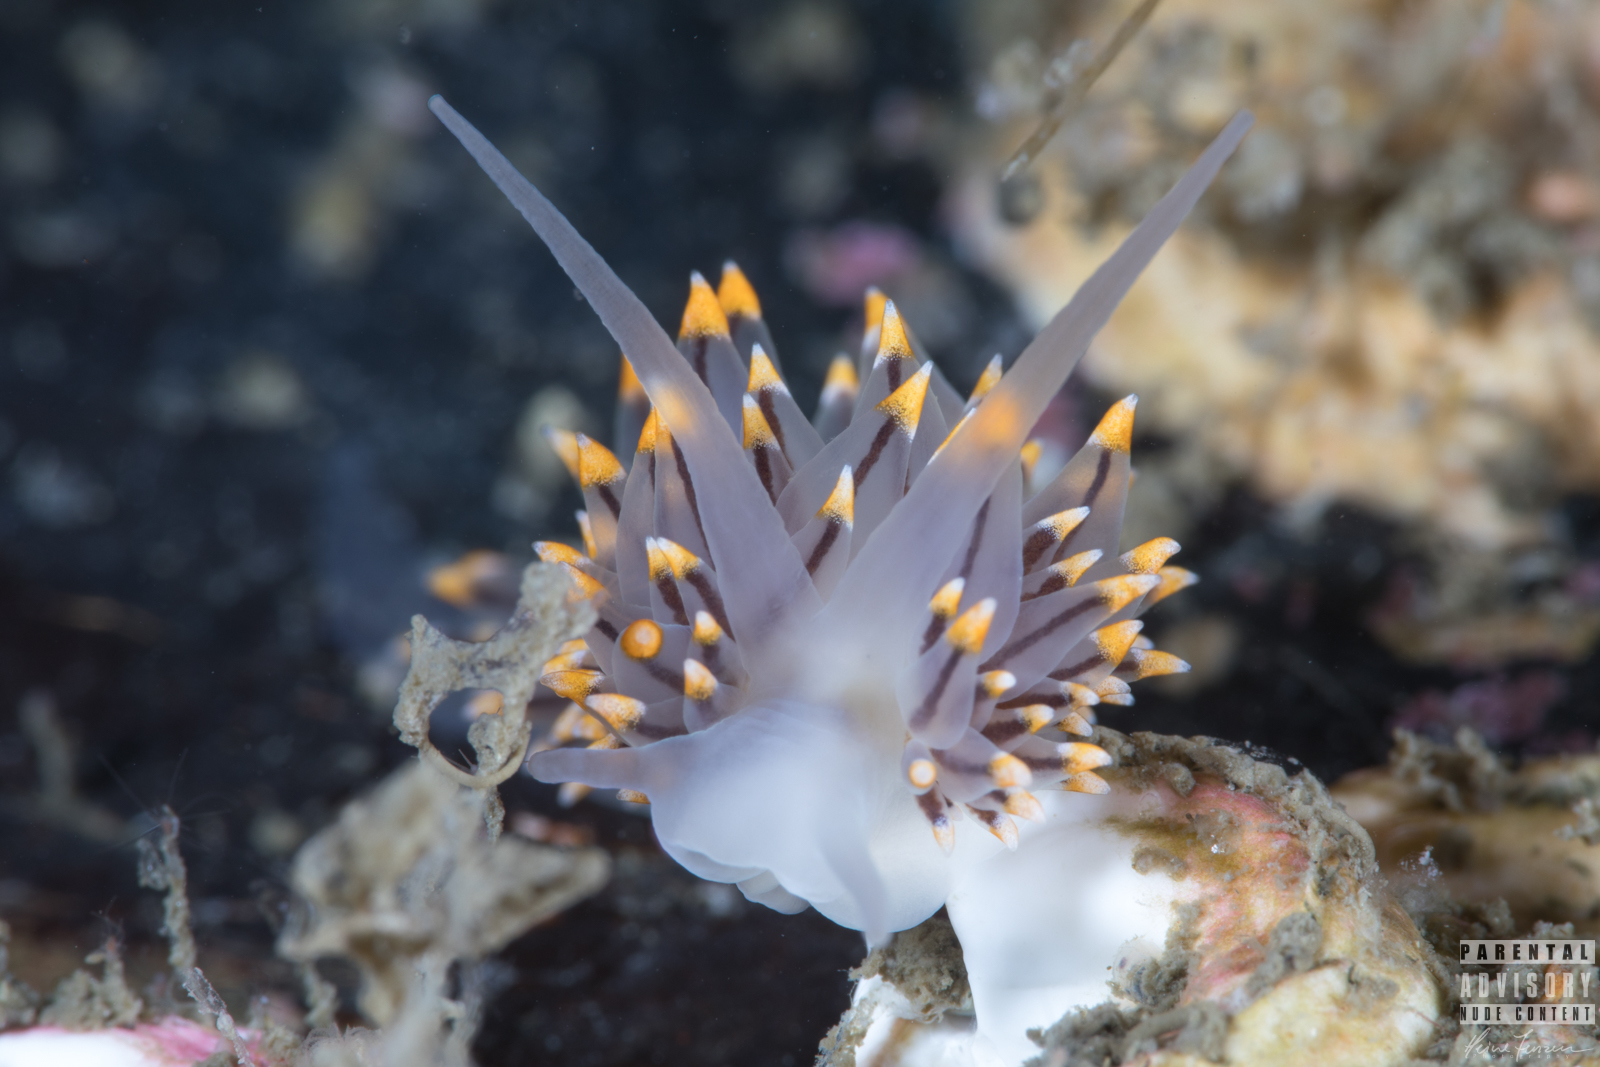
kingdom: Animalia
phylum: Mollusca
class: Gastropoda
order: Nudibranchia
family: Eubranchidae
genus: Eubranchus
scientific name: Eubranchus tricolor
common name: Painted balloon aeolis
